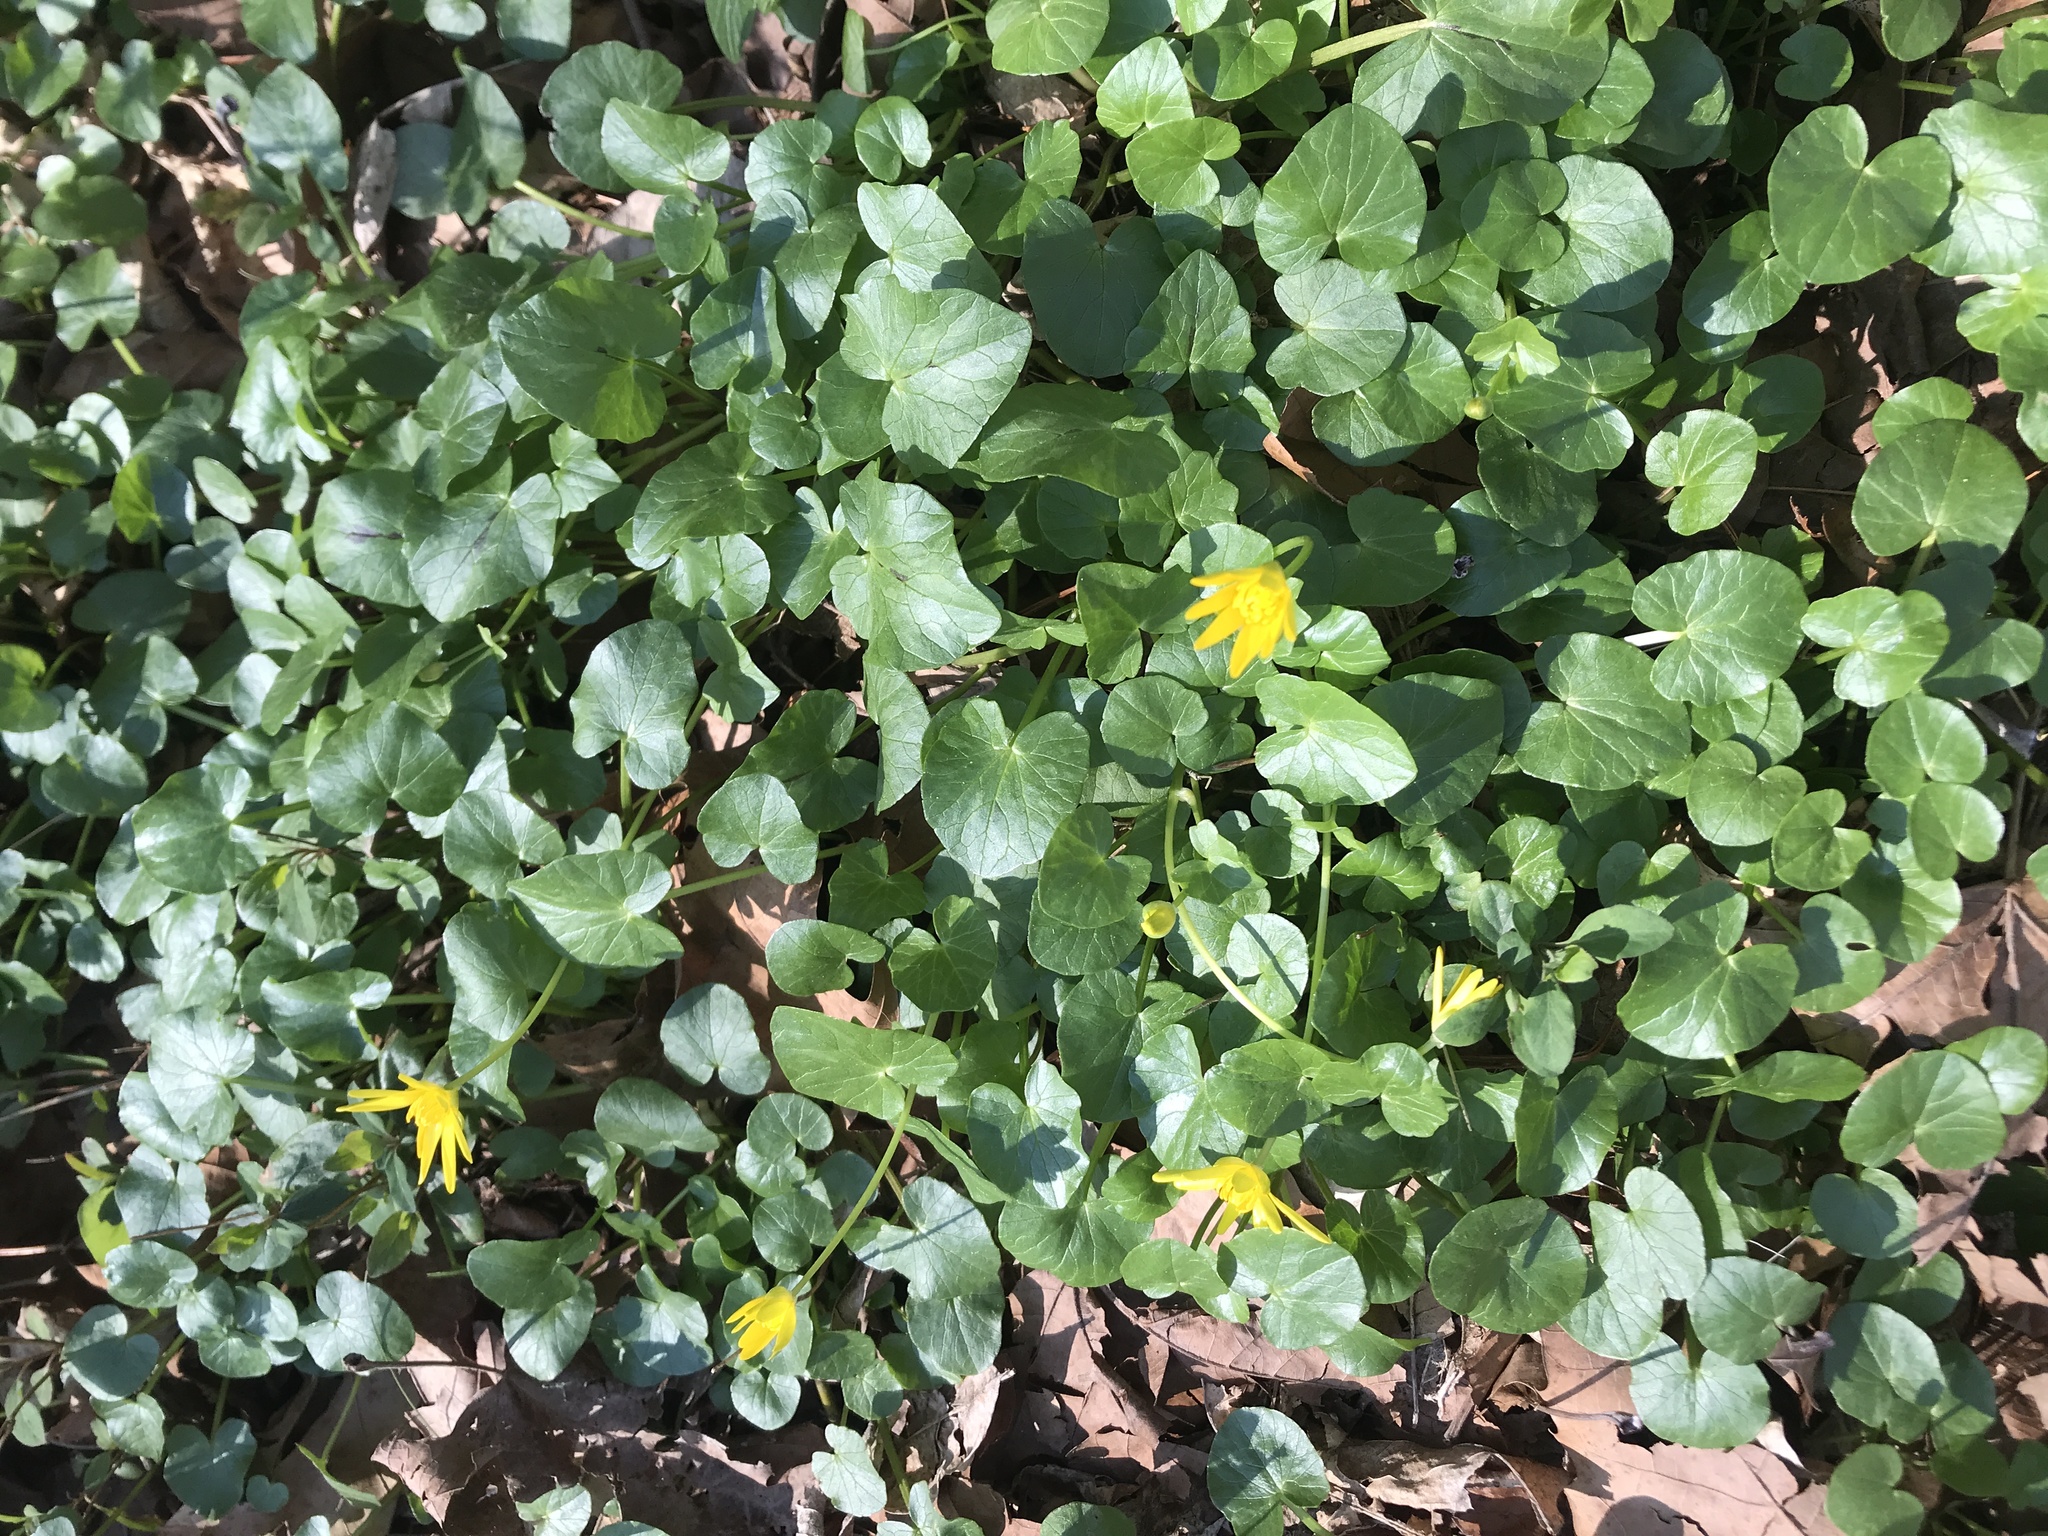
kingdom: Plantae
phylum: Tracheophyta
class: Magnoliopsida
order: Ranunculales
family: Ranunculaceae
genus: Ficaria
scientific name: Ficaria verna
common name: Lesser celandine
